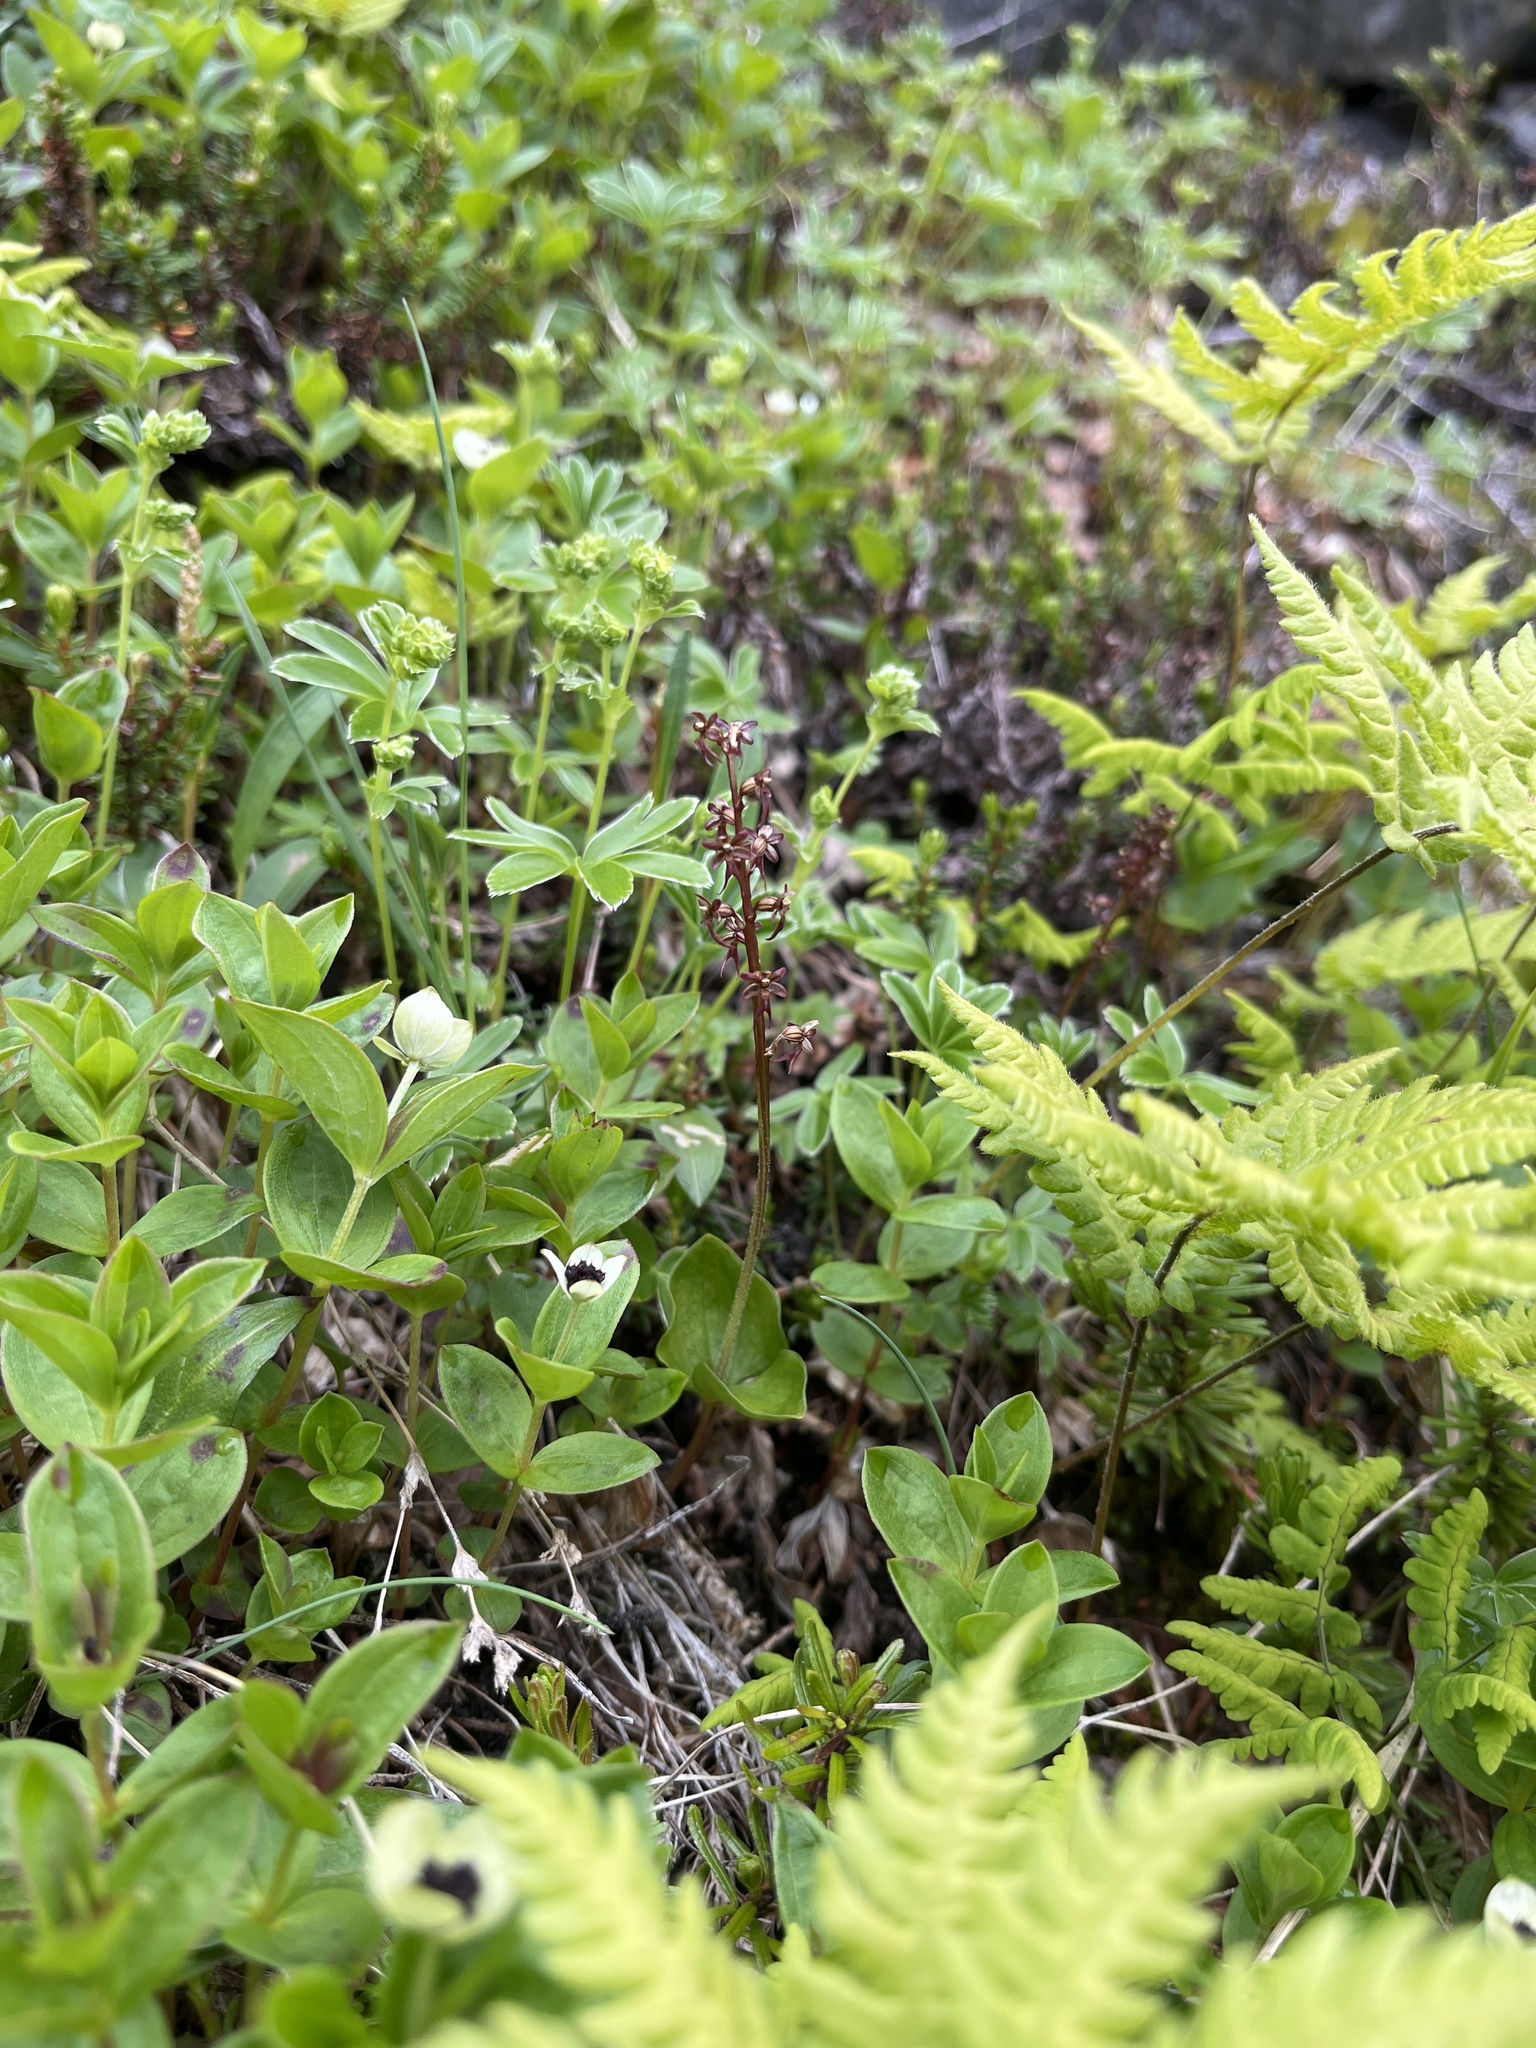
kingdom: Plantae
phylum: Tracheophyta
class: Liliopsida
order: Asparagales
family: Orchidaceae
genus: Neottia
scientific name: Neottia cordata
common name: Lesser twayblade
